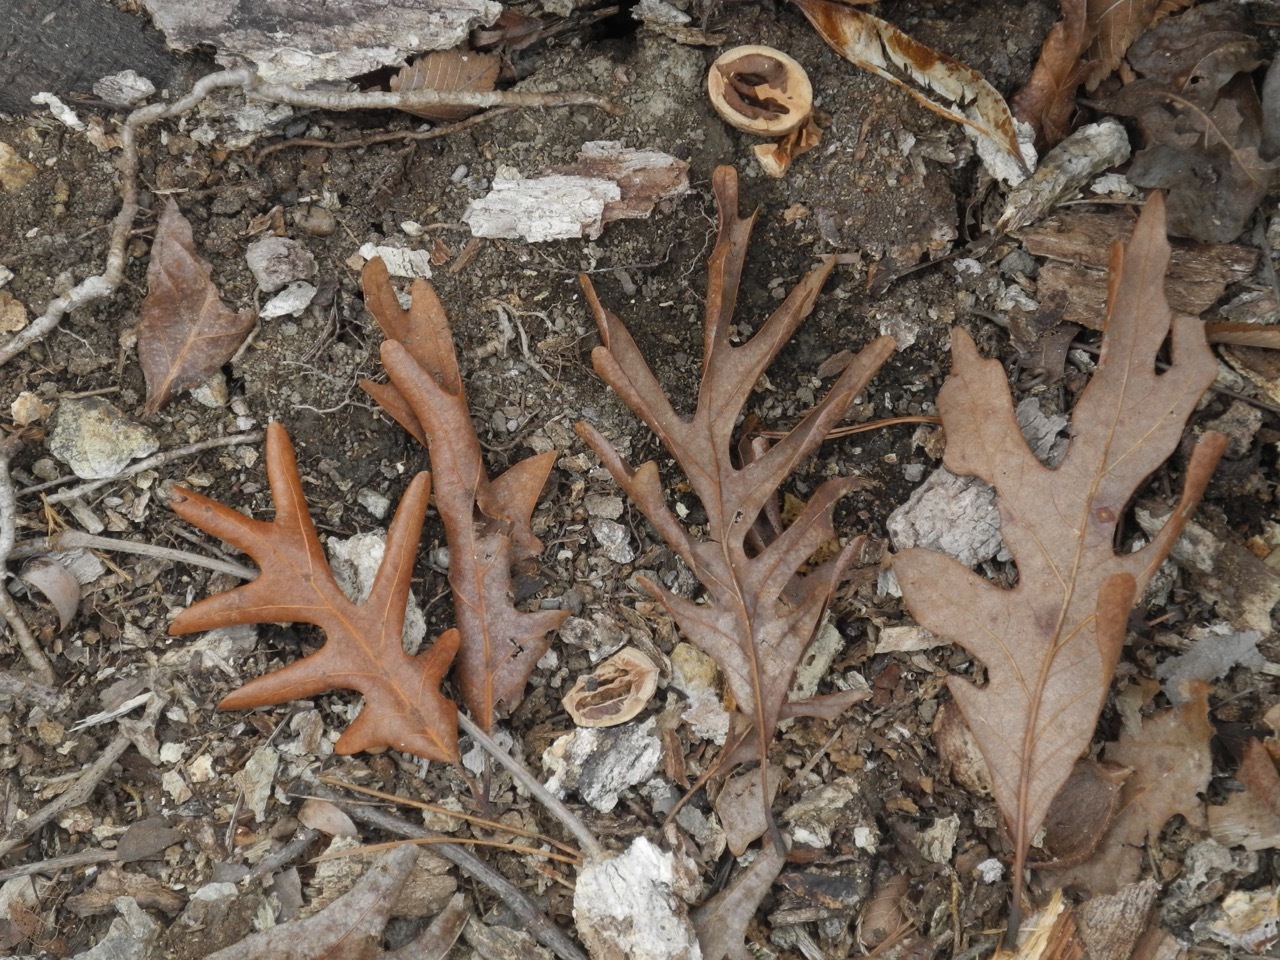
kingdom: Plantae
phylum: Tracheophyta
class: Magnoliopsida
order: Fagales
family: Fagaceae
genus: Quercus
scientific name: Quercus alba
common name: White oak
